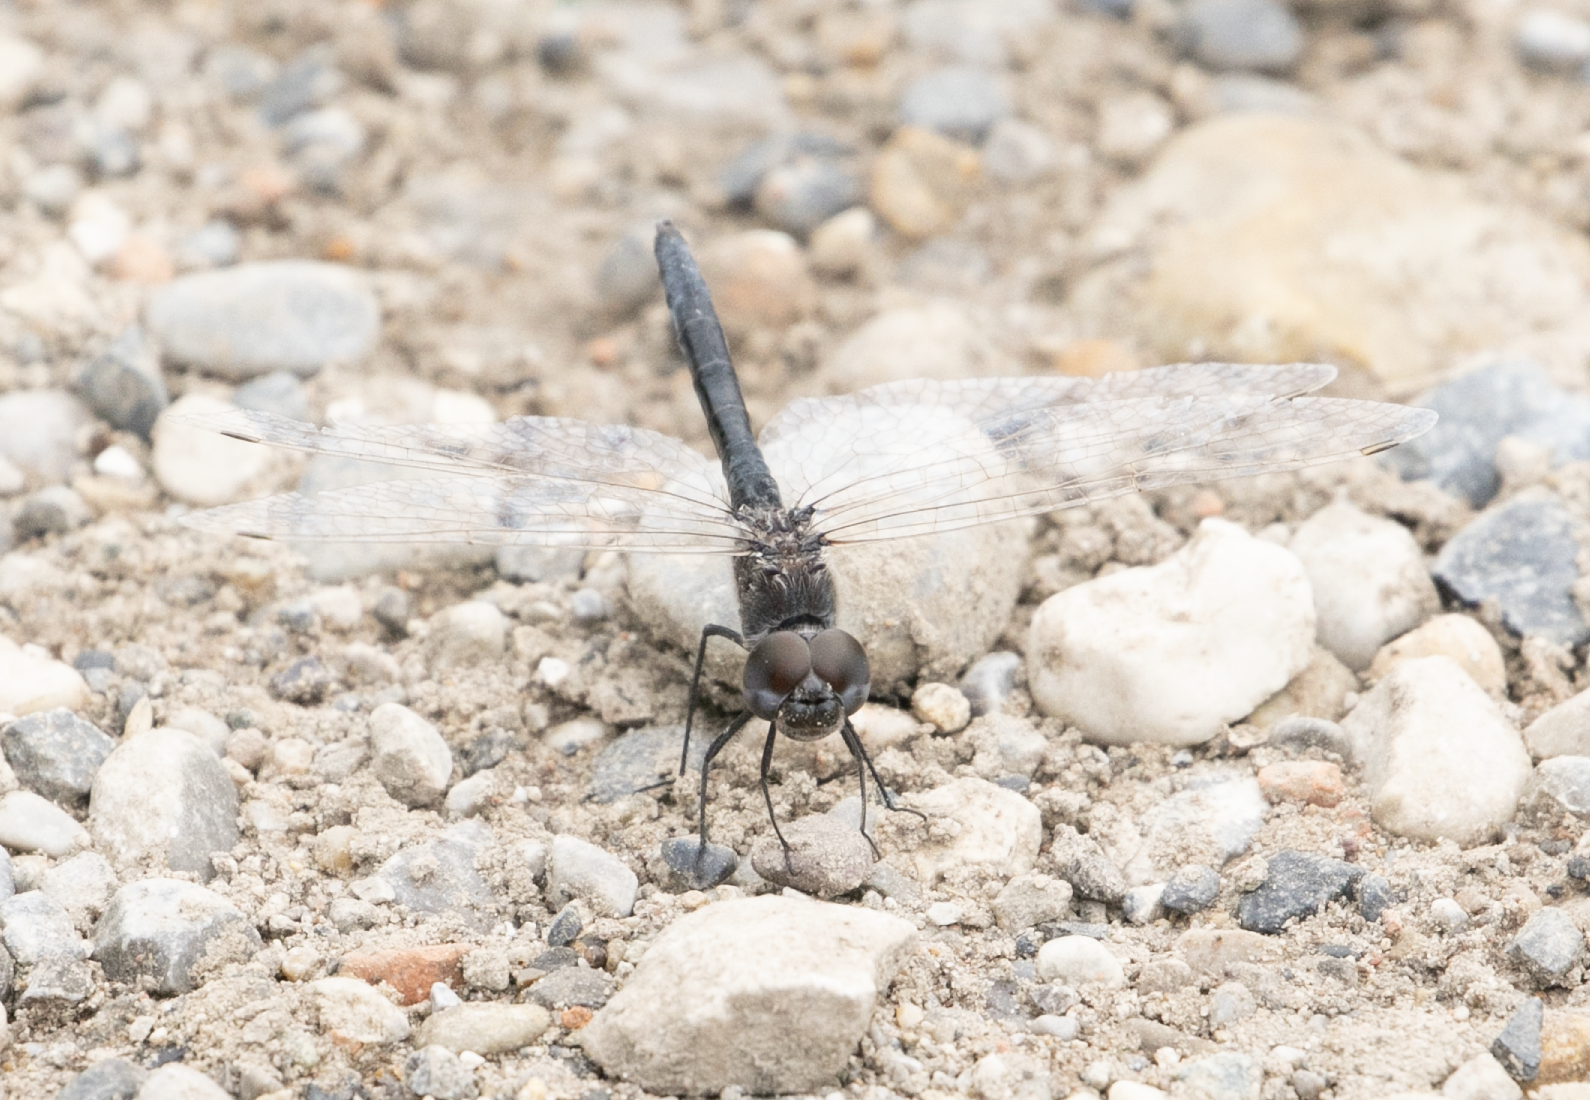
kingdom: Animalia
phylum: Arthropoda
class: Insecta
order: Odonata
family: Libellulidae
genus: Selysiothemis
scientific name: Selysiothemis nigra
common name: Black pennant
